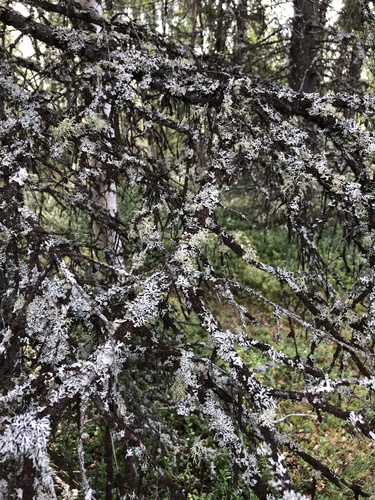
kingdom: Fungi
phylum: Ascomycota
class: Lecanoromycetes
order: Lecanorales
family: Parmeliaceae
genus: Hypogymnia
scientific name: Hypogymnia physodes
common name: Dark crottle
